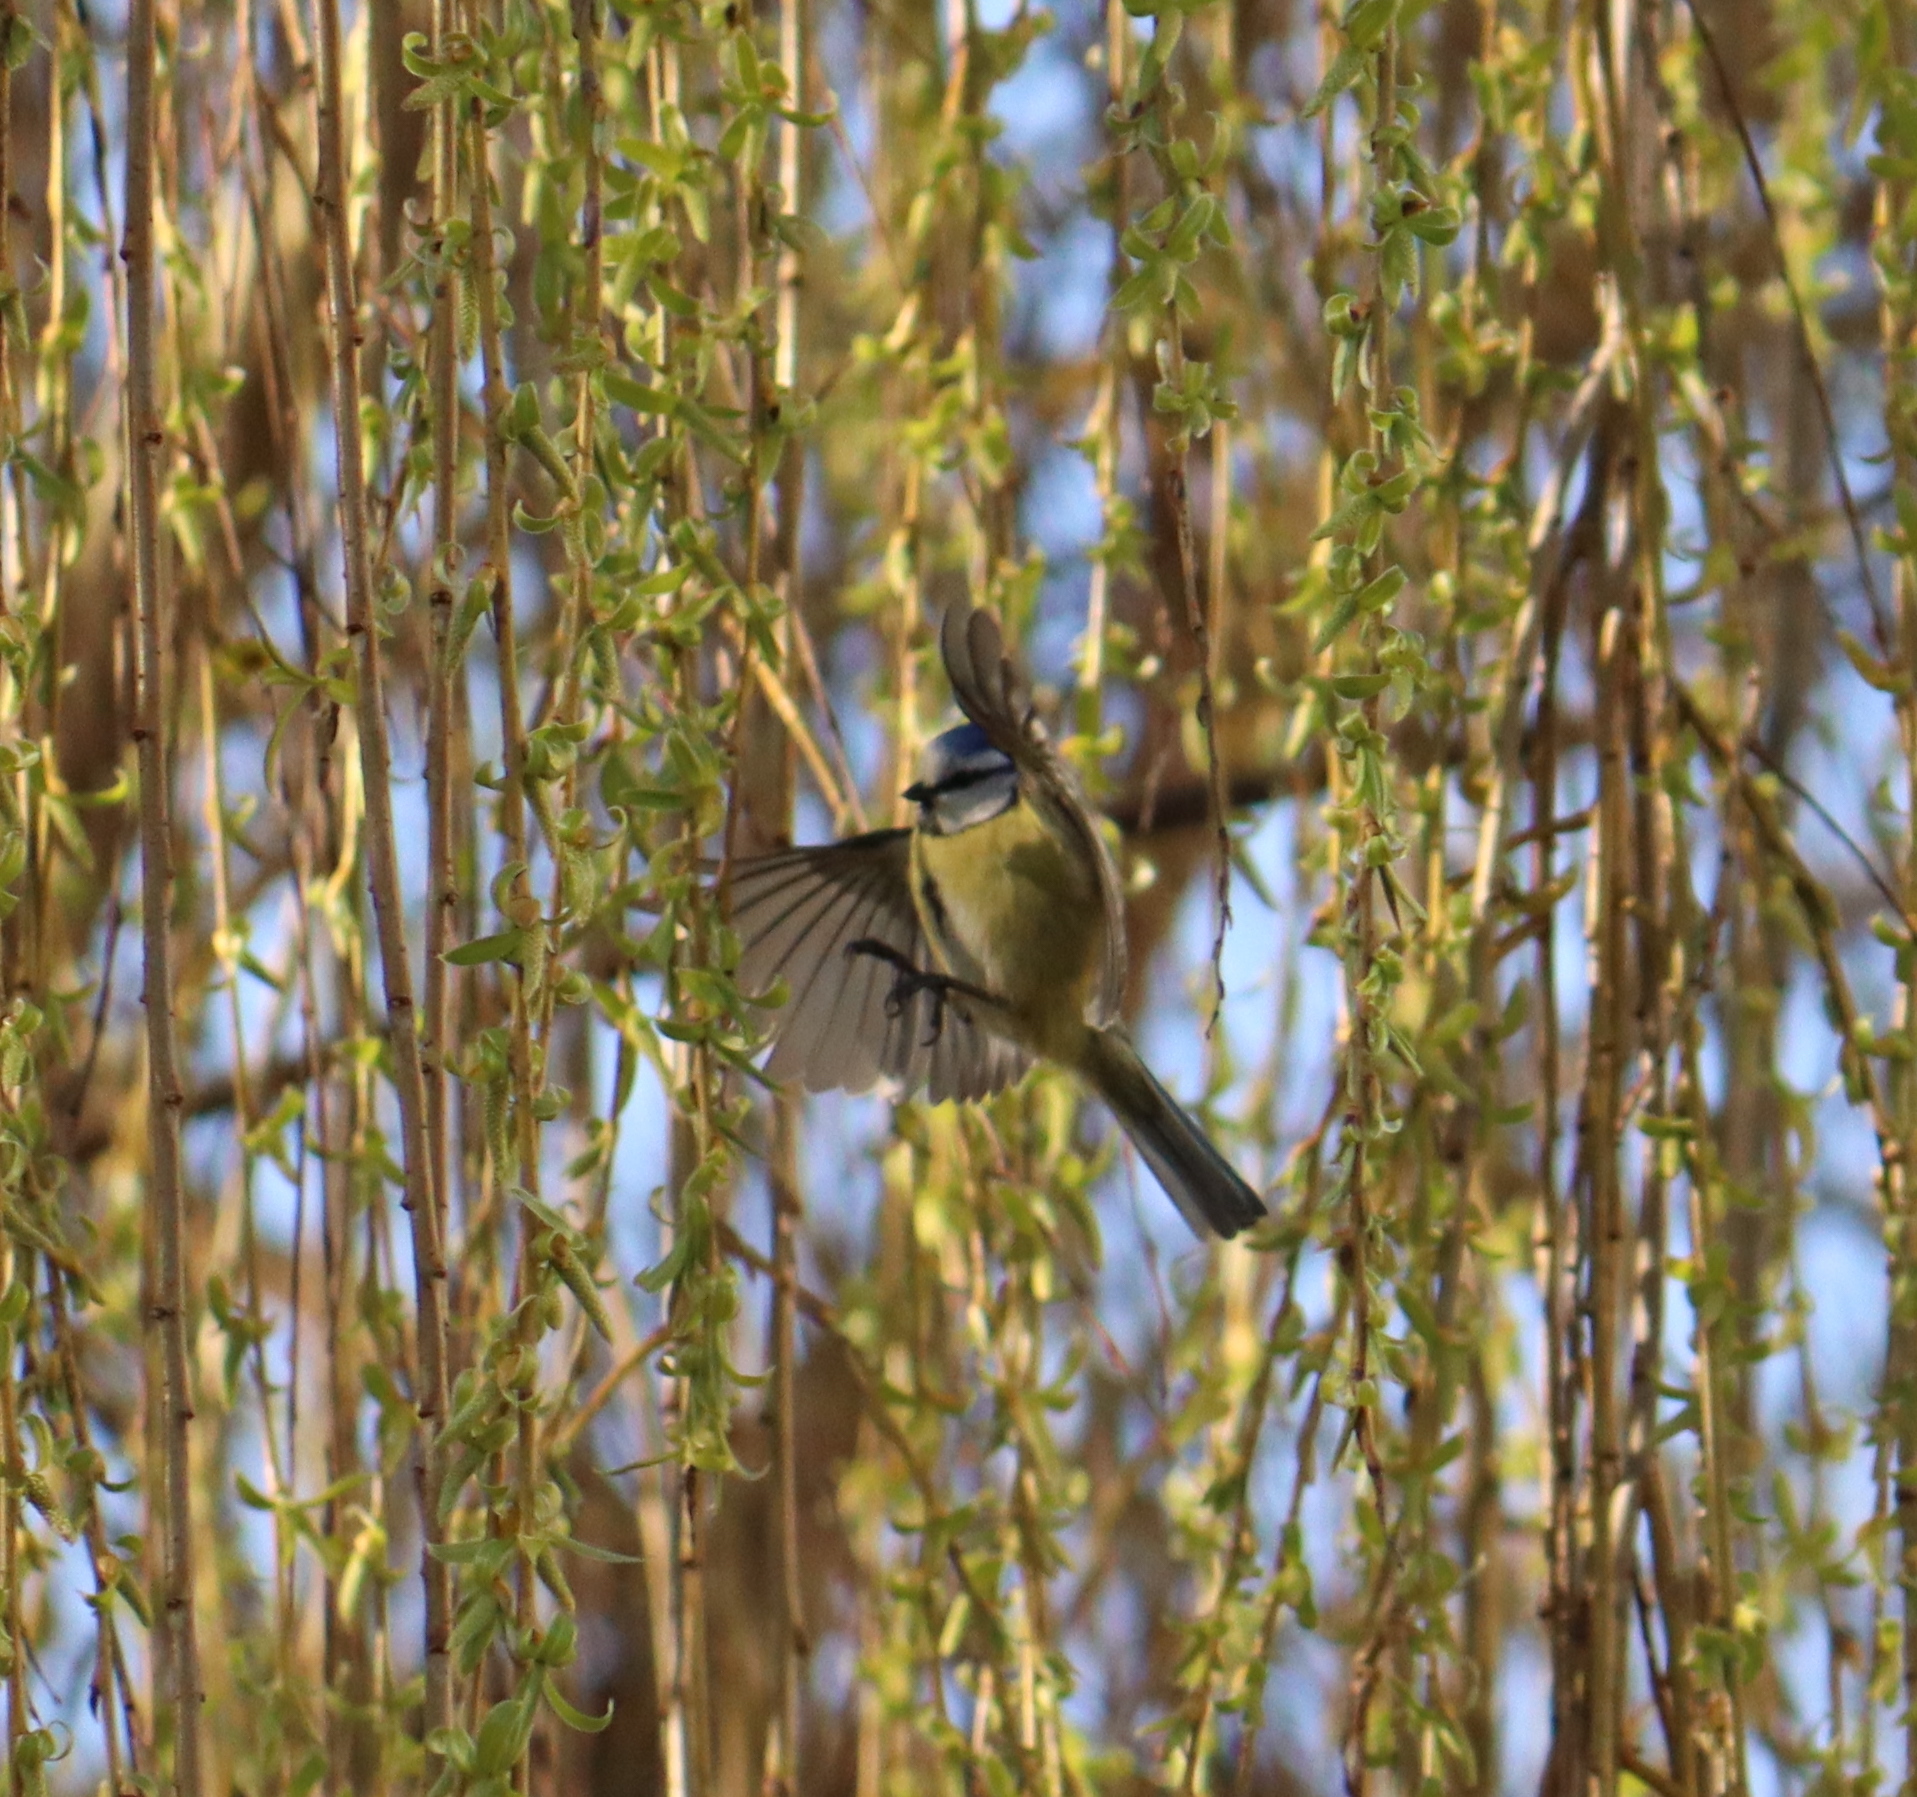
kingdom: Animalia
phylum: Chordata
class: Aves
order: Passeriformes
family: Paridae
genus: Cyanistes
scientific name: Cyanistes caeruleus
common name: Eurasian blue tit
